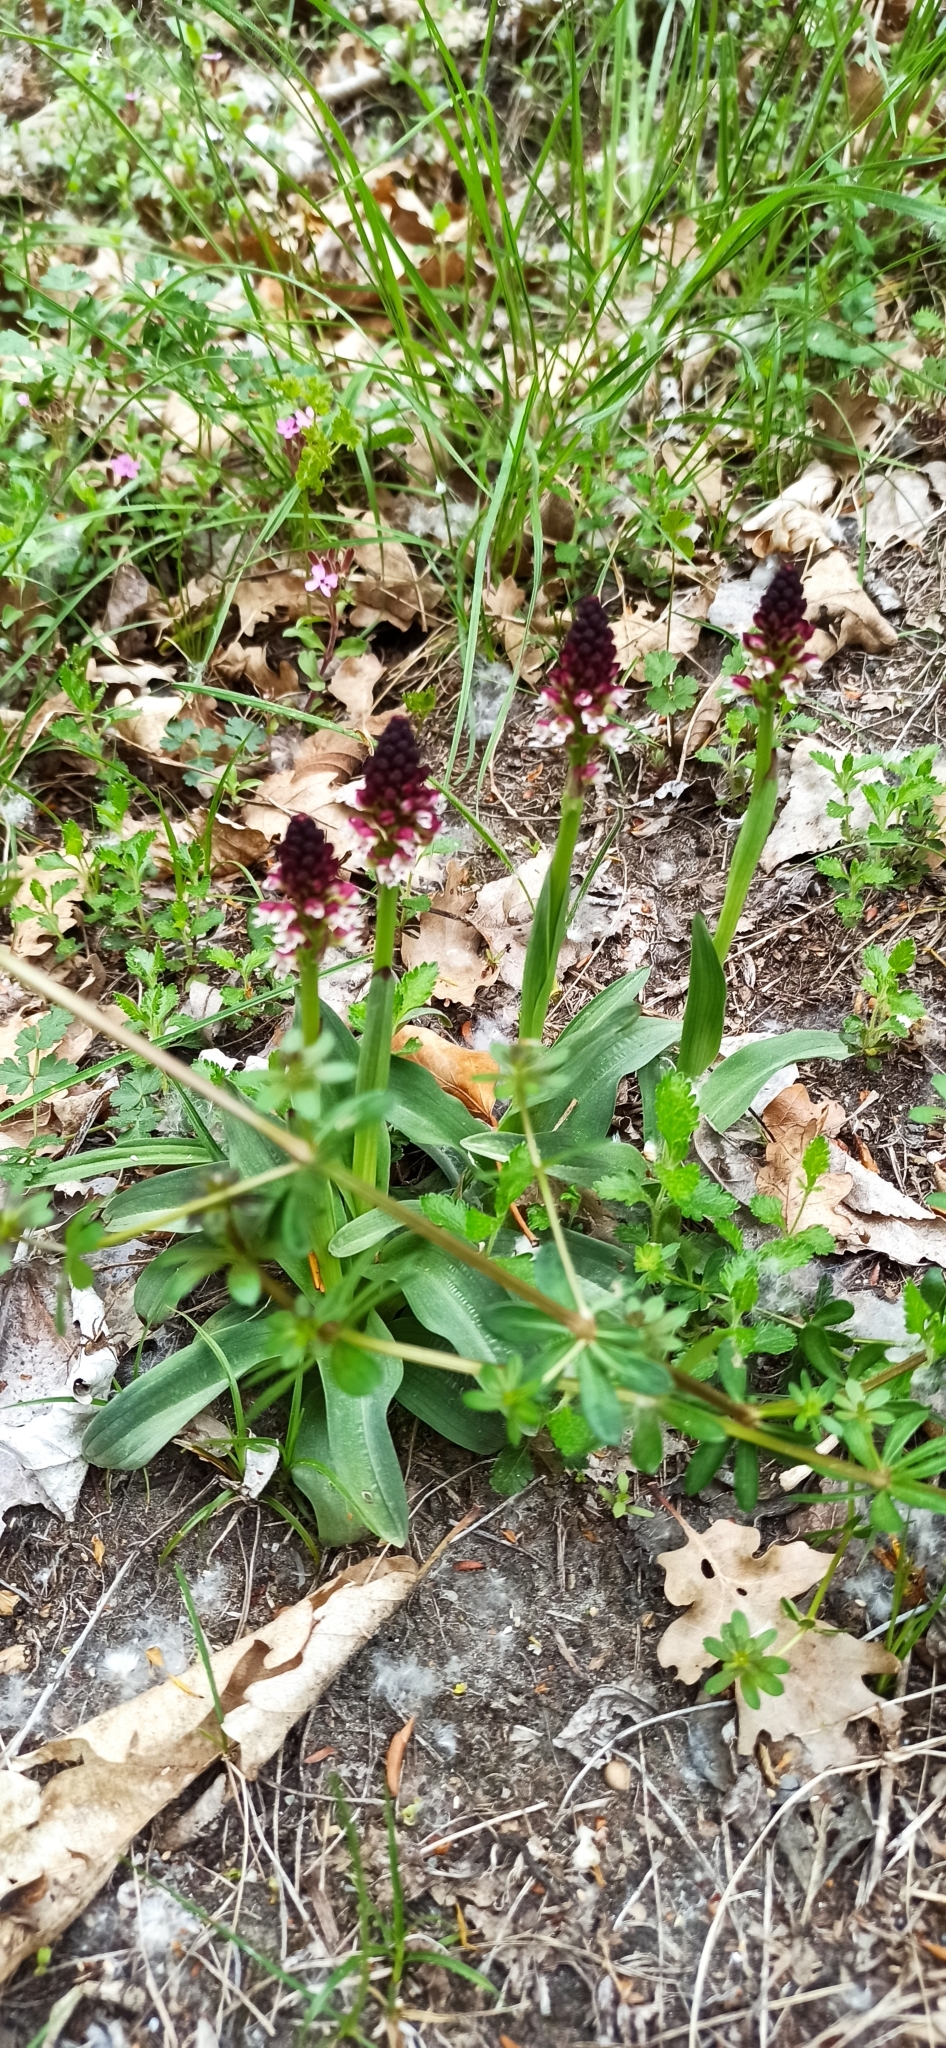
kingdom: Plantae
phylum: Tracheophyta
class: Liliopsida
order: Asparagales
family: Orchidaceae
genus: Neotinea
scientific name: Neotinea ustulata
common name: Burnt orchid
